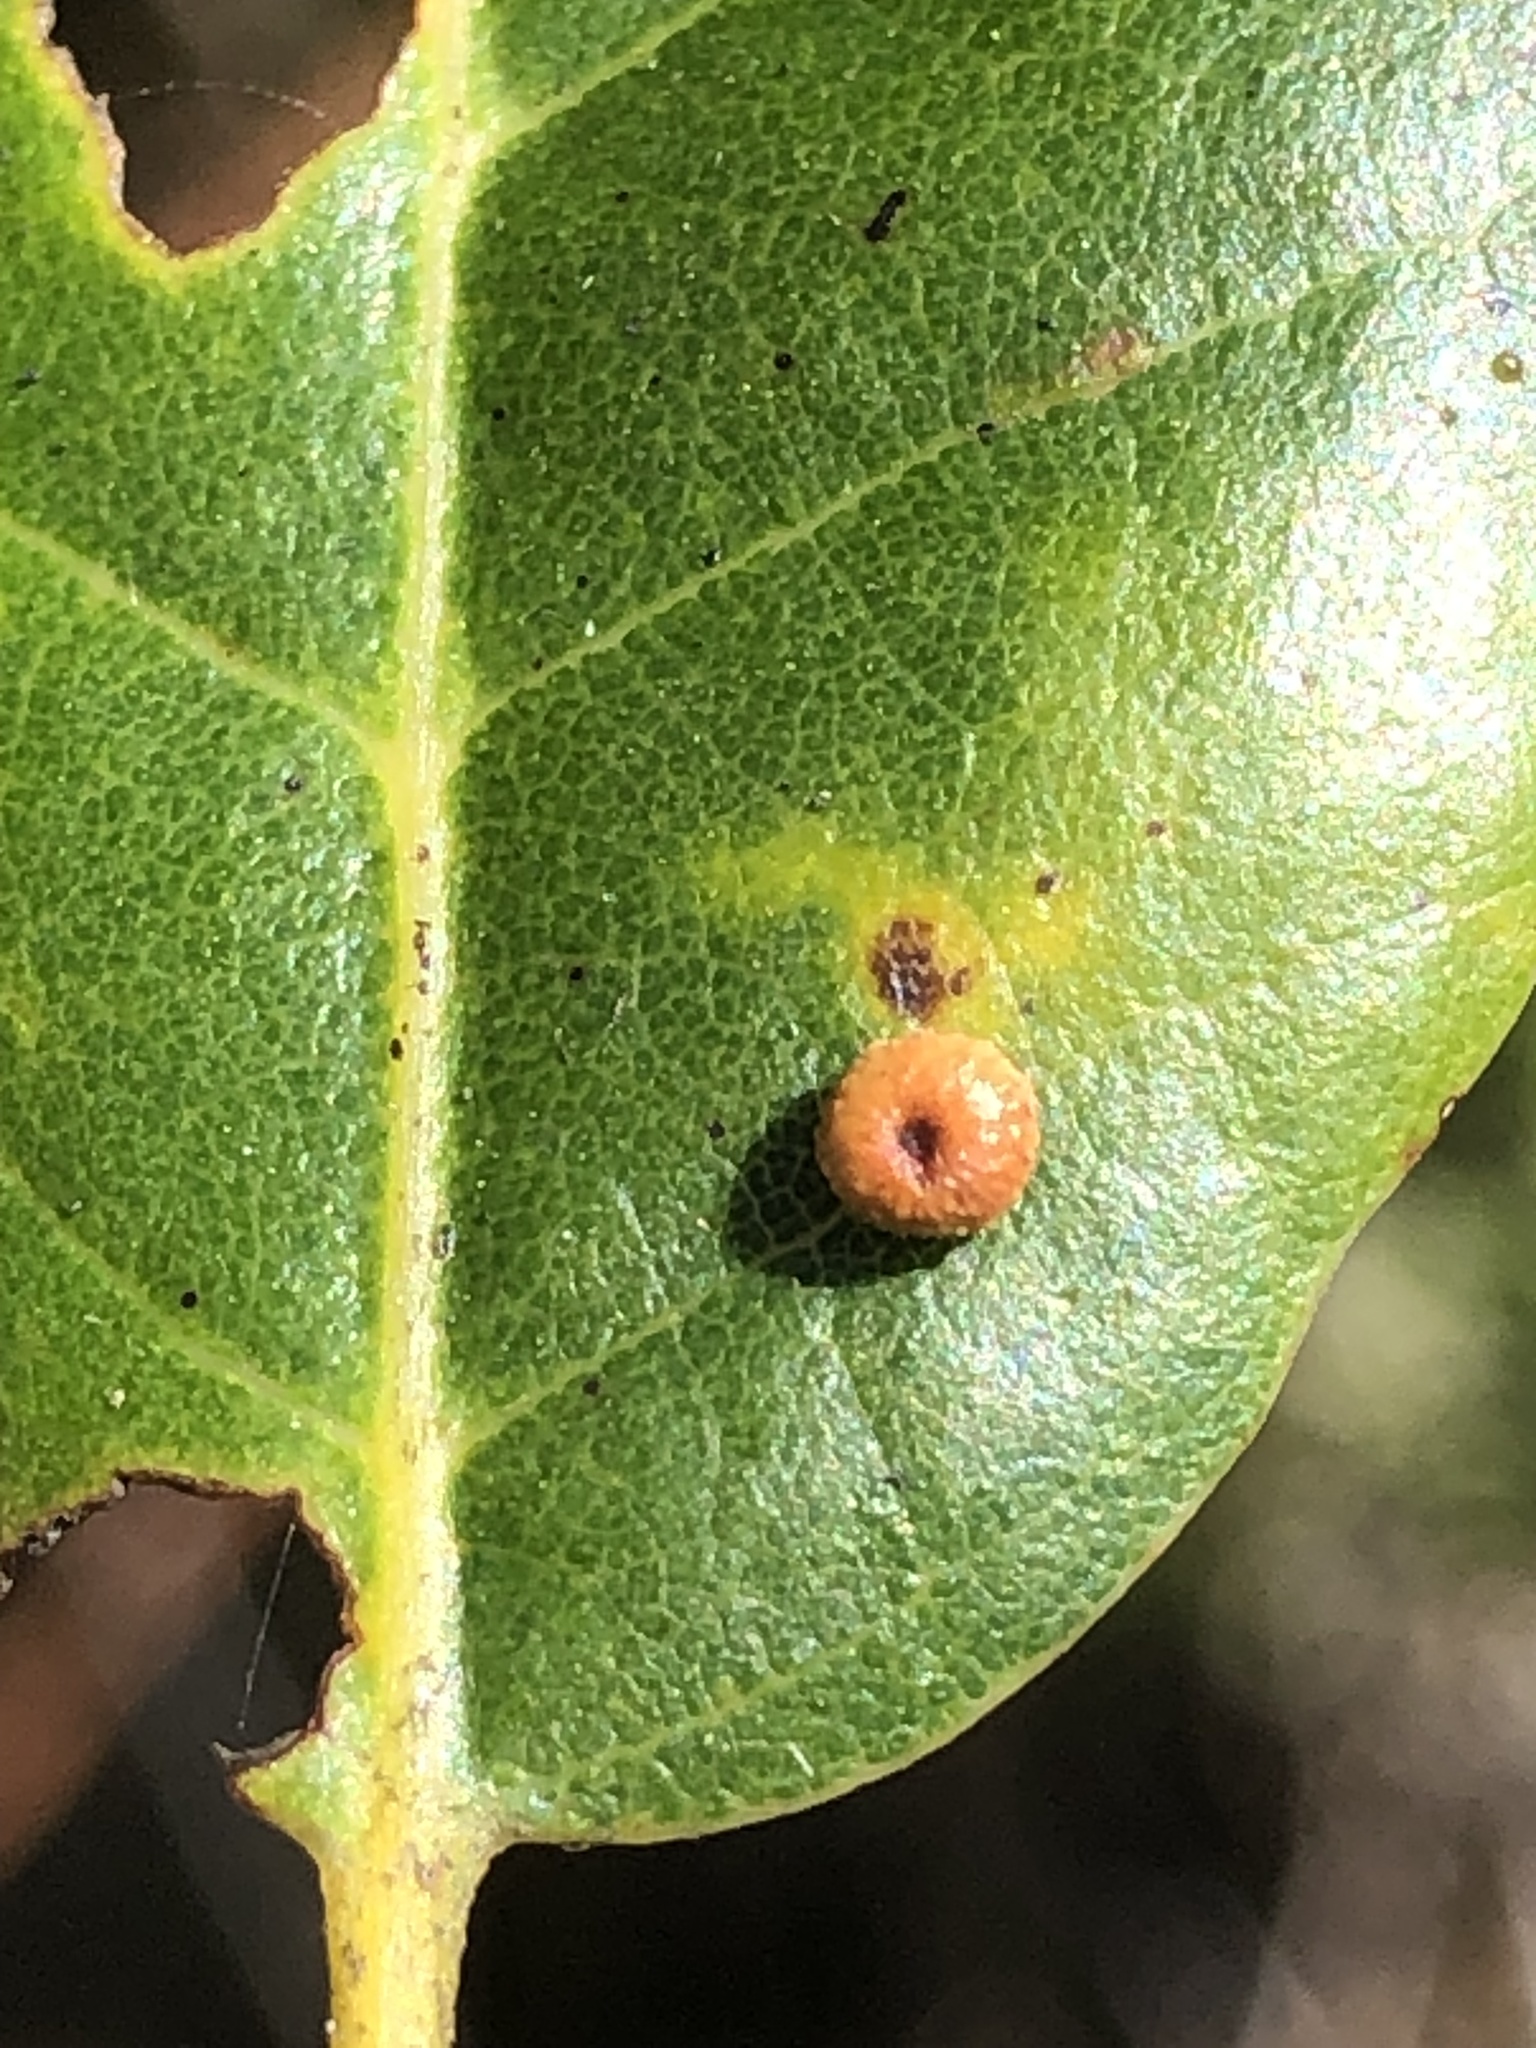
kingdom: Animalia
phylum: Arthropoda
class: Insecta
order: Hymenoptera
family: Cynipidae
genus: Dryocosmus
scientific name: Dryocosmus
